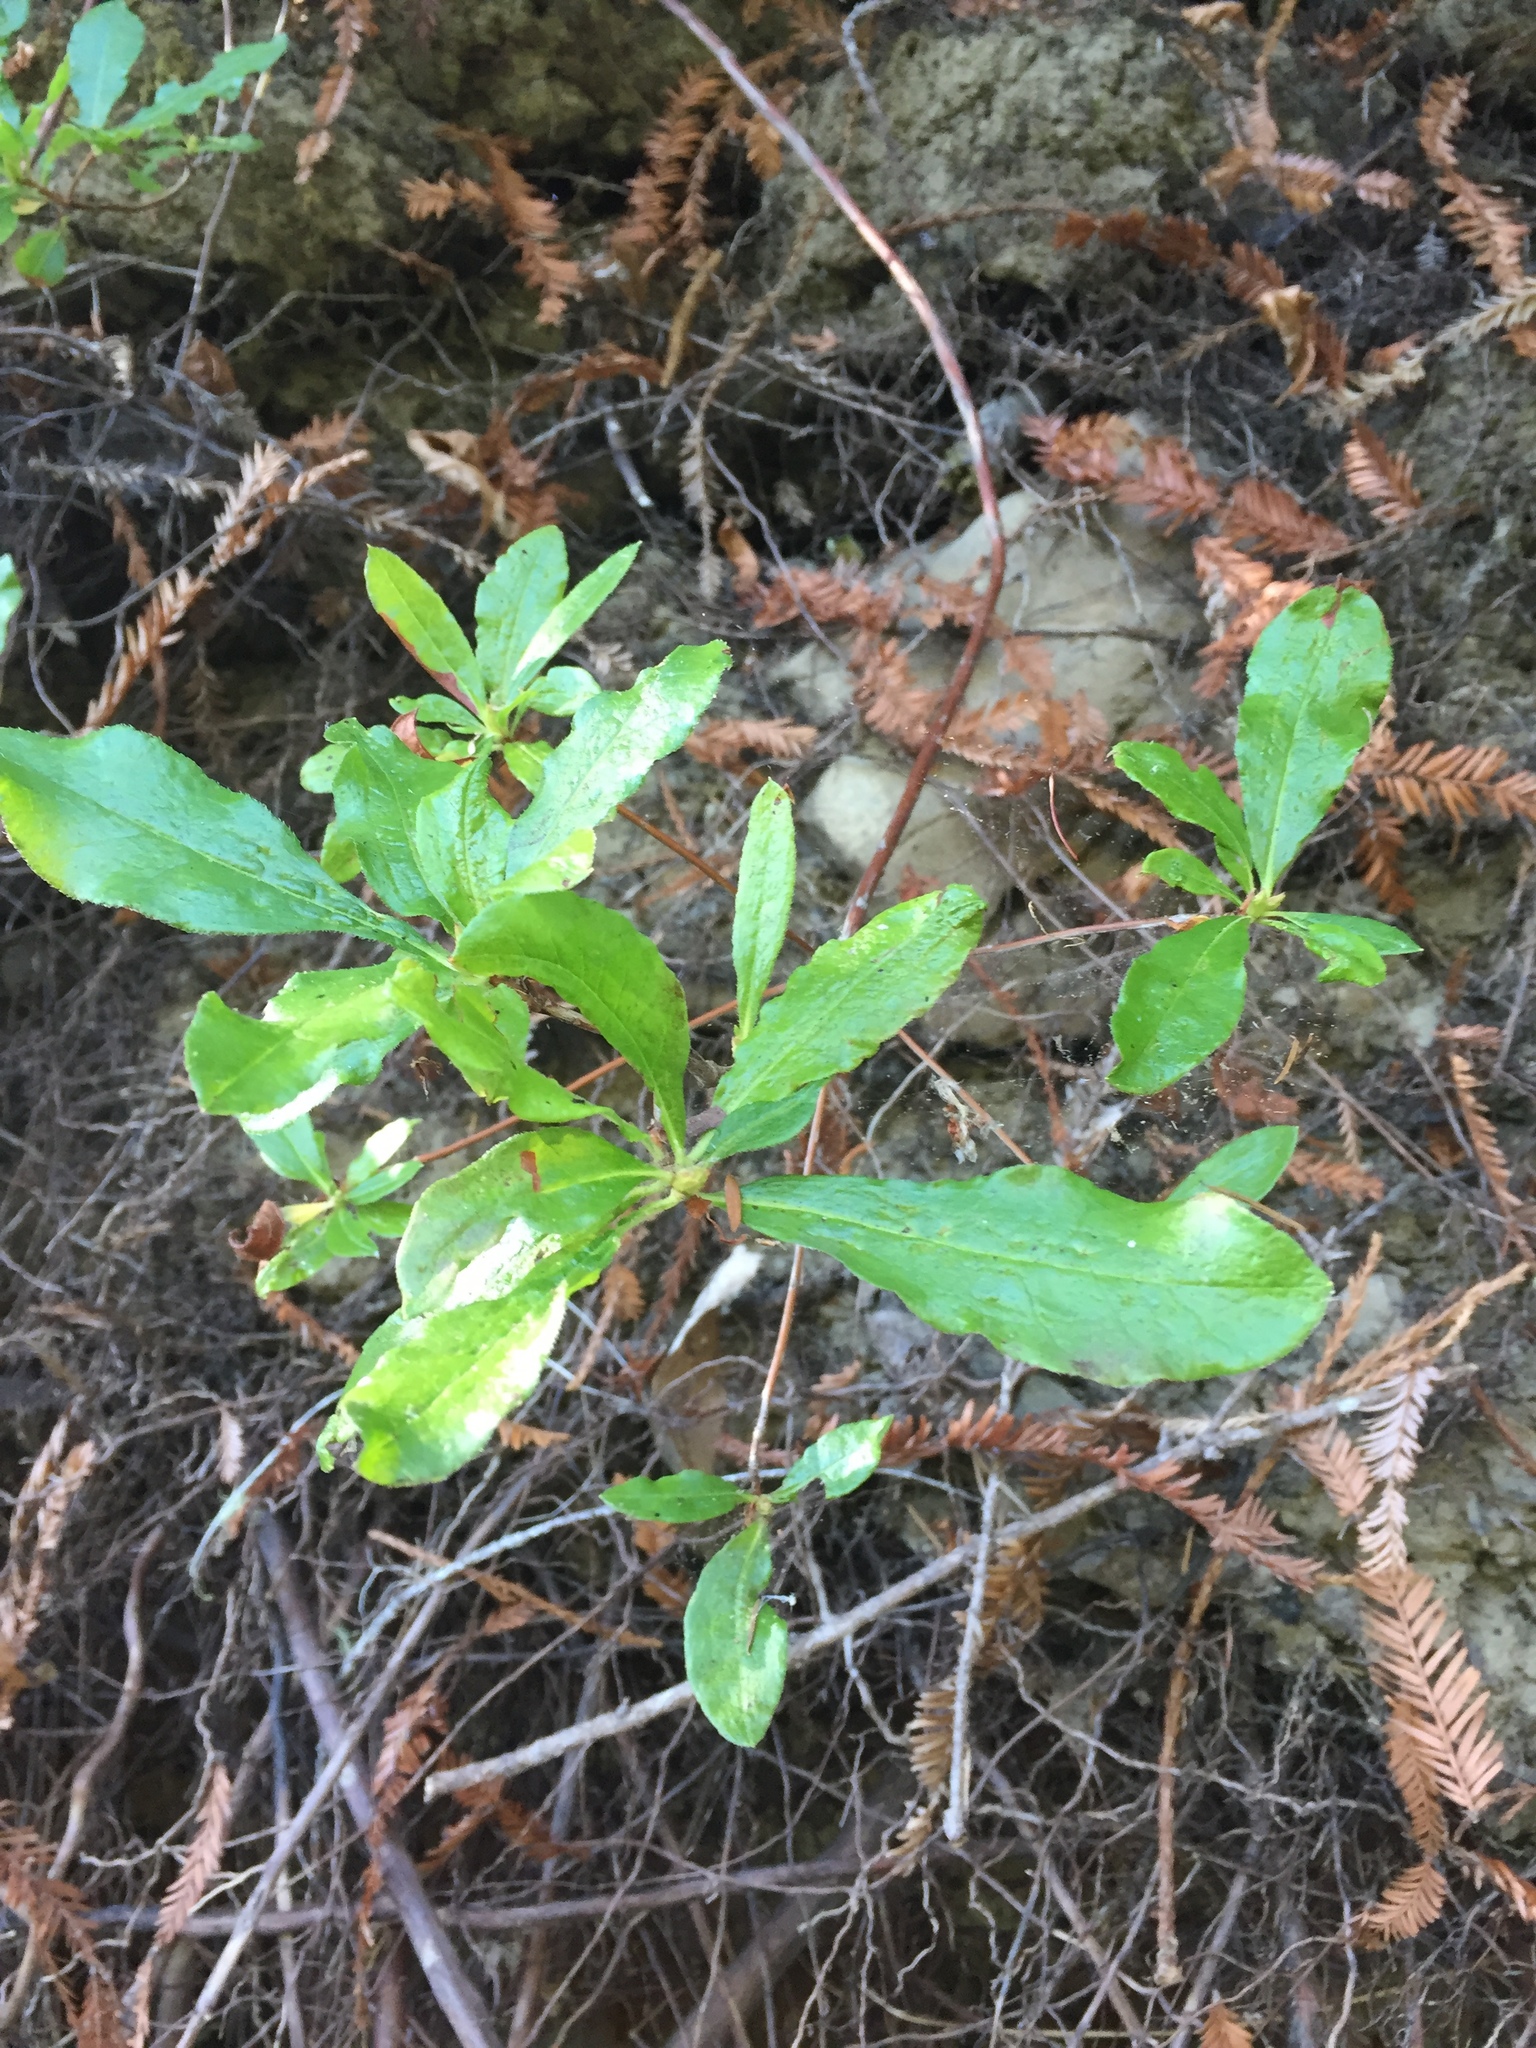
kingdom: Plantae
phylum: Tracheophyta
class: Magnoliopsida
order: Ericales
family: Ericaceae
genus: Rhododendron
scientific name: Rhododendron occidentale
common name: Western azalea
